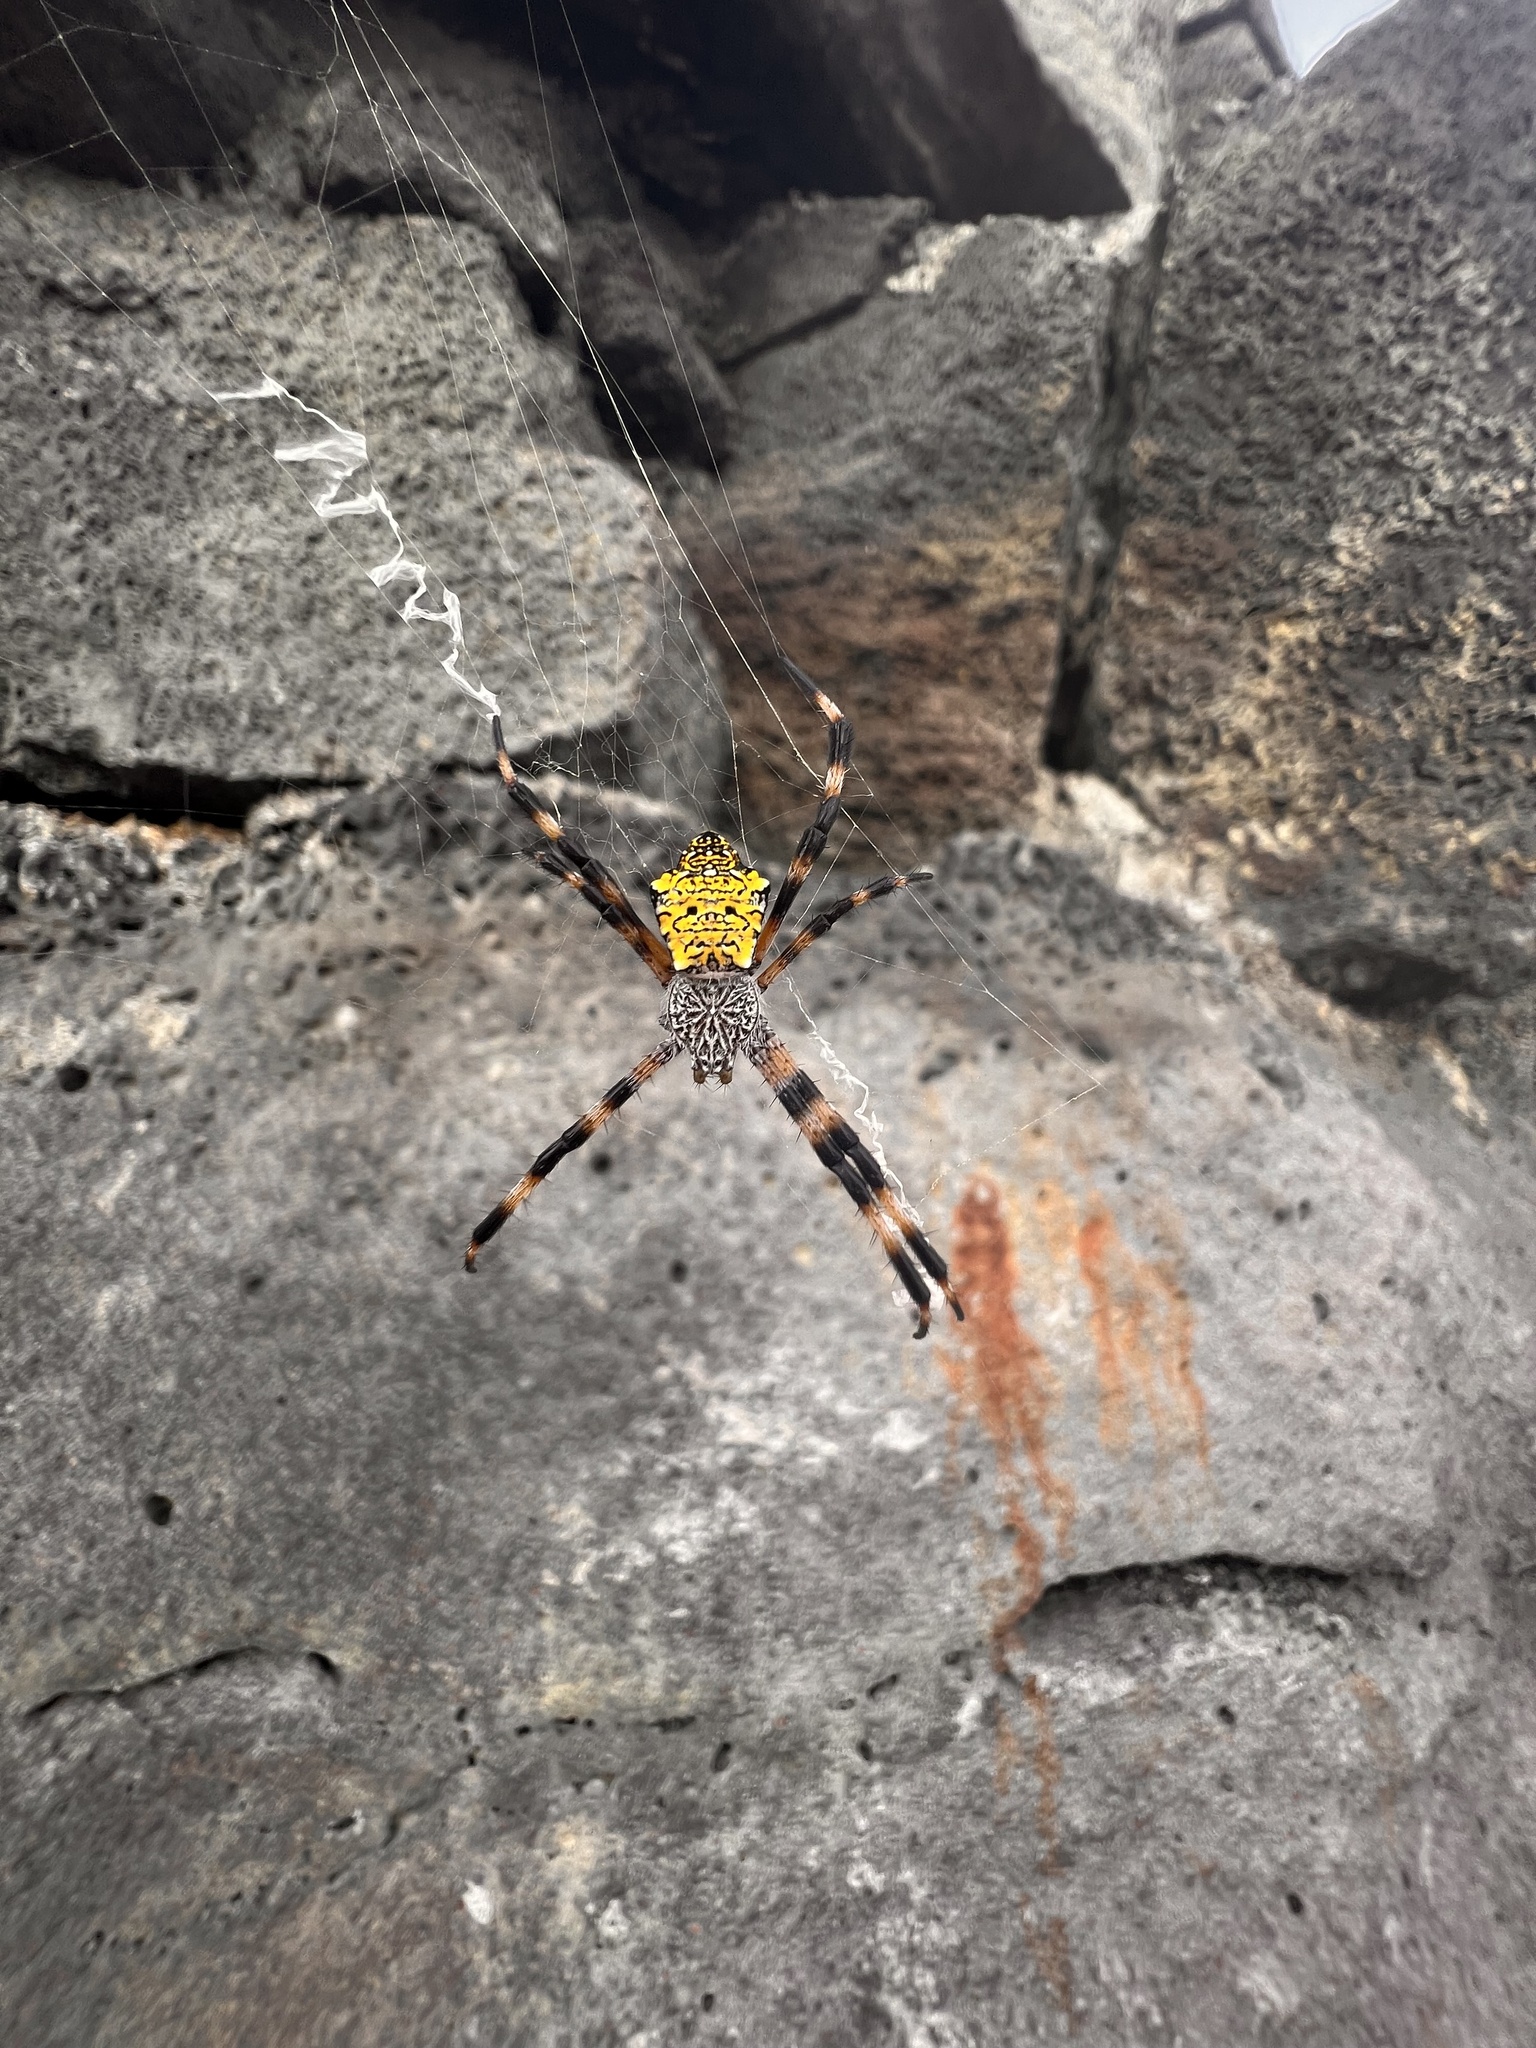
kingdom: Animalia
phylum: Arthropoda
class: Arachnida
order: Araneae
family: Araneidae
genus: Argiope
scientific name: Argiope appensa
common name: Garden spider
